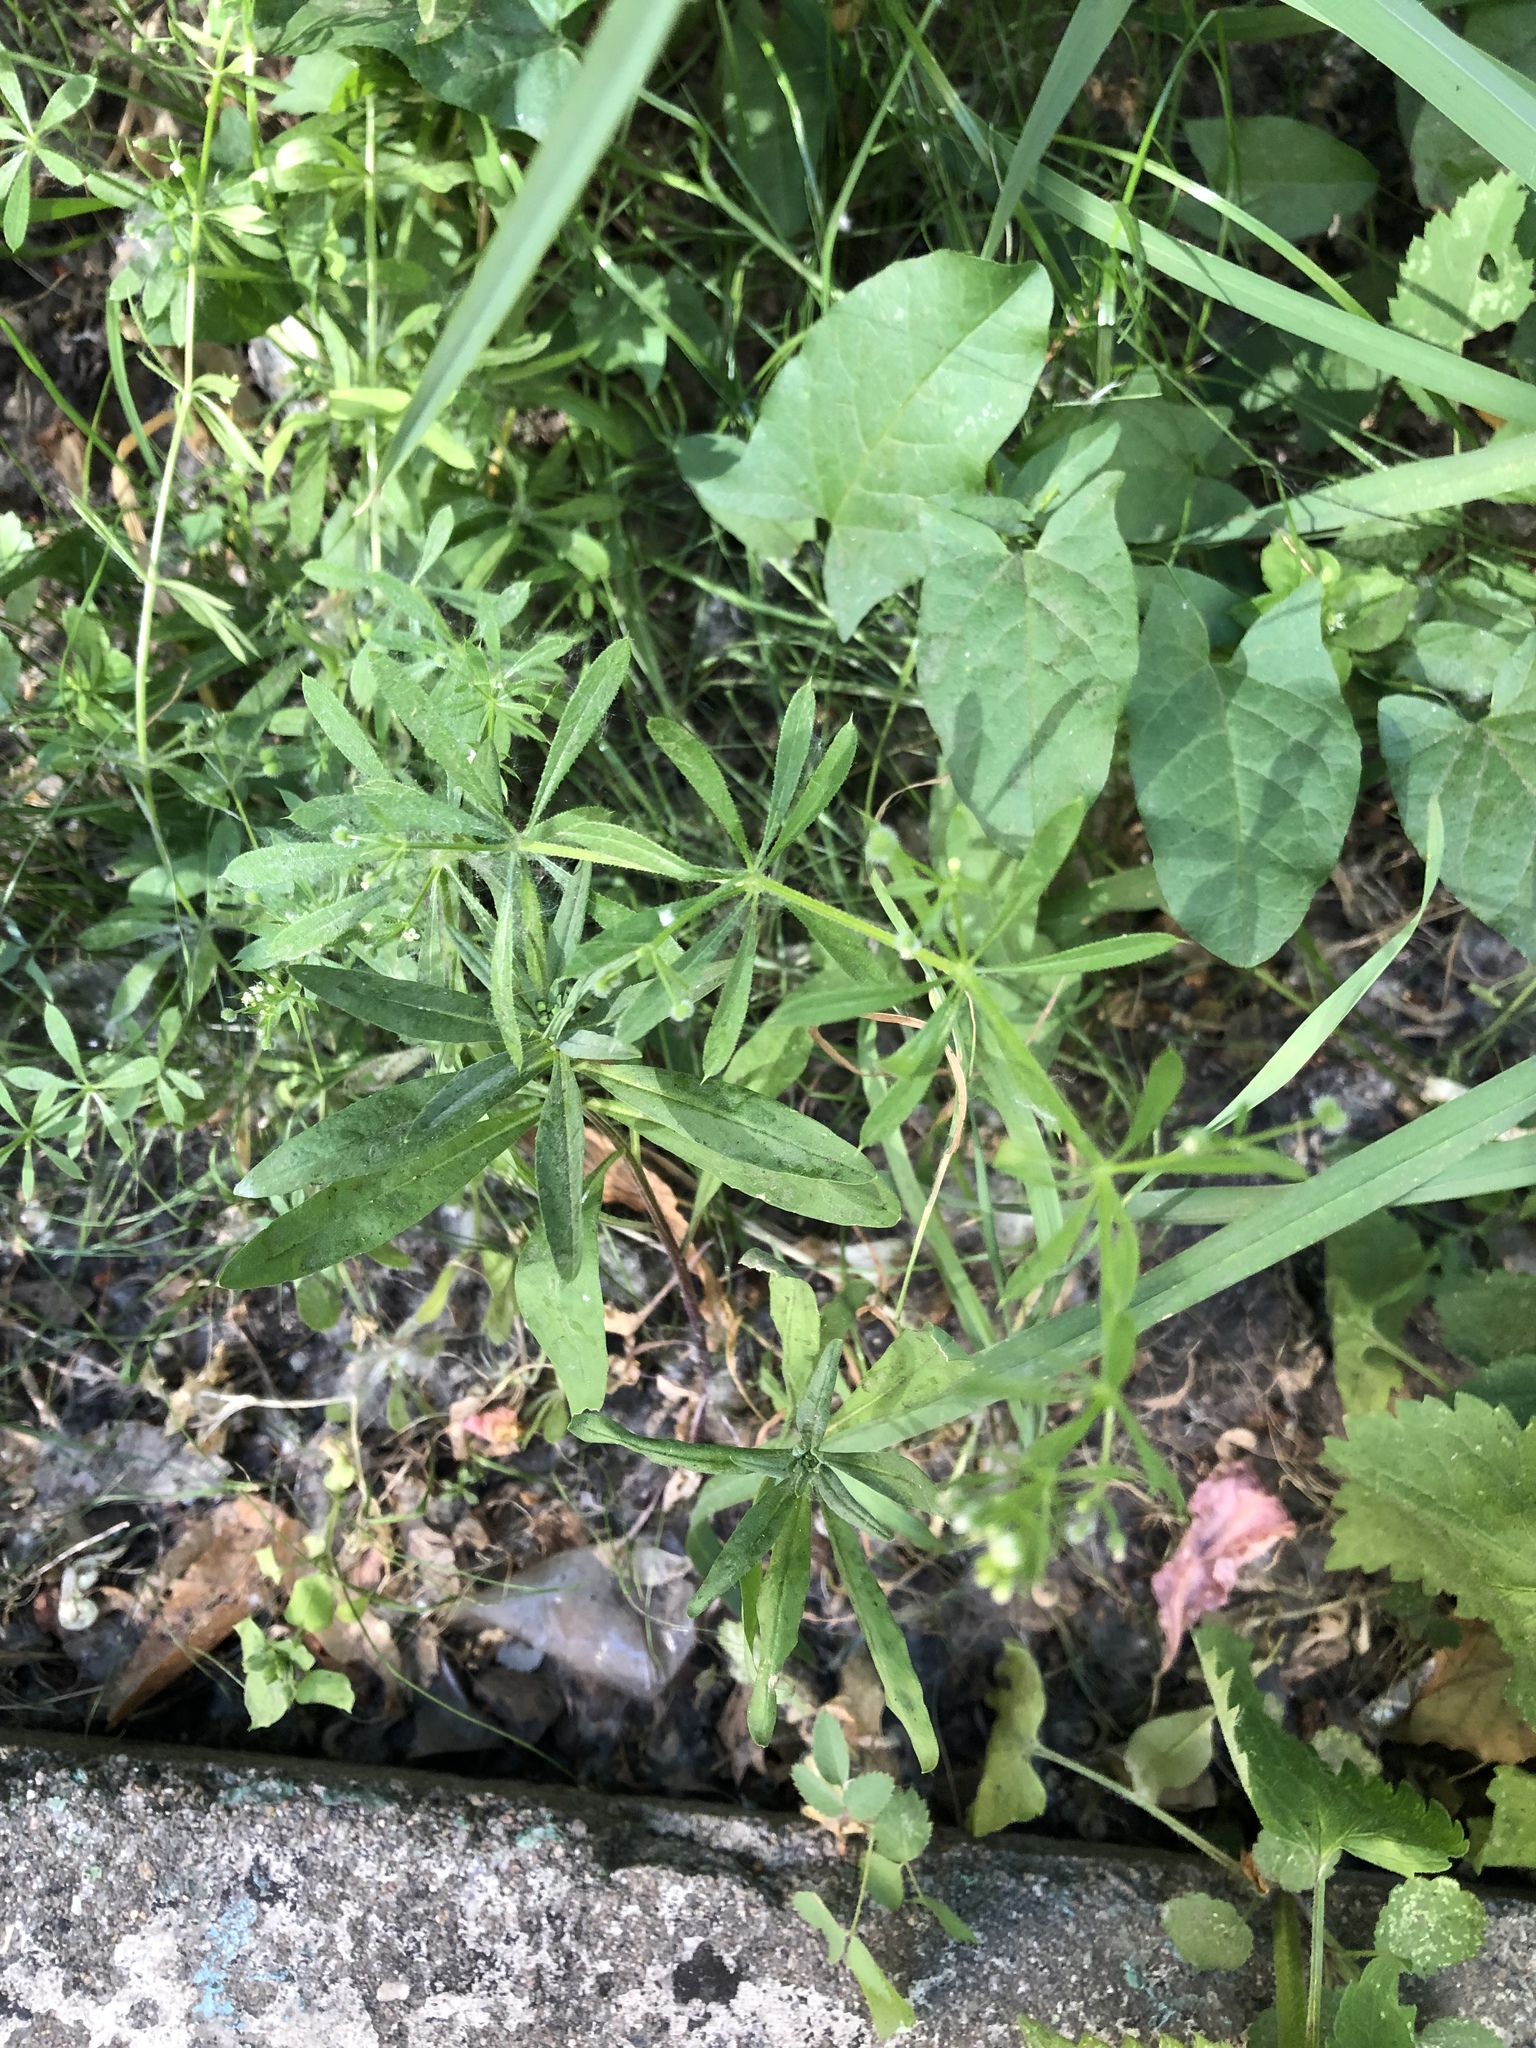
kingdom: Plantae
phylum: Tracheophyta
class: Magnoliopsida
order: Gentianales
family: Rubiaceae
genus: Galium
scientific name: Galium aparine
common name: Cleavers
